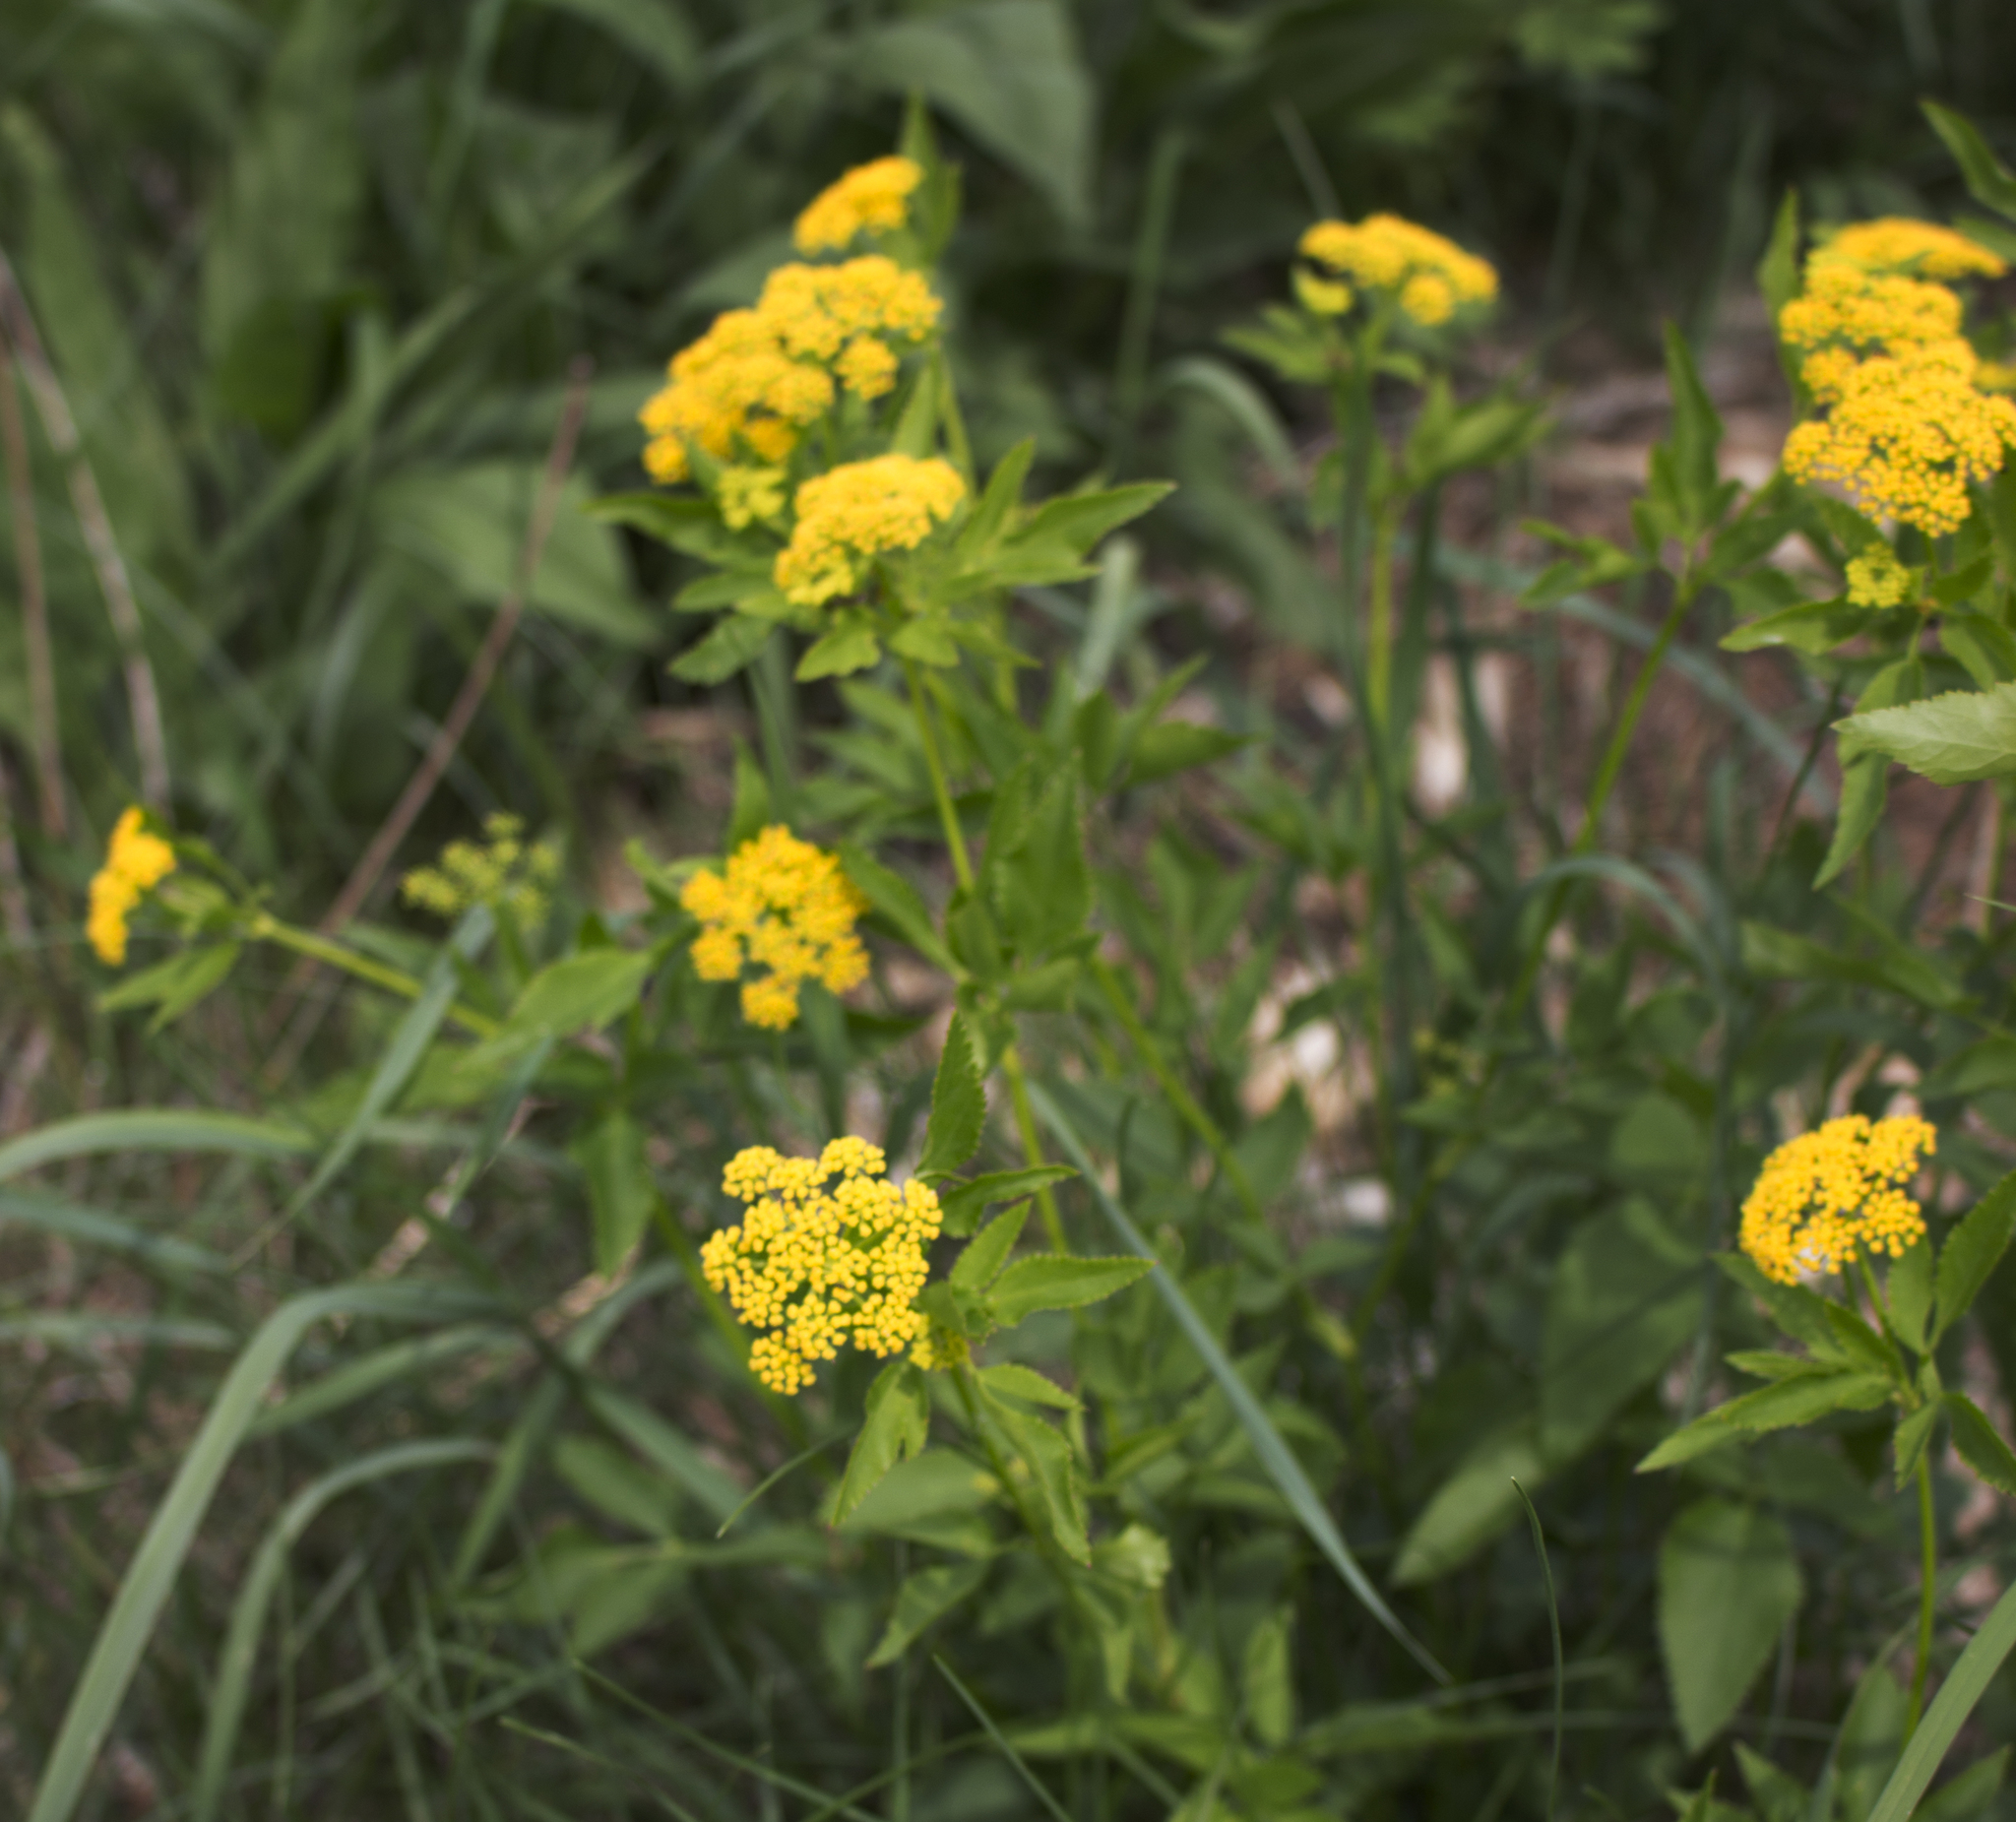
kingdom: Plantae
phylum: Tracheophyta
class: Magnoliopsida
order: Apiales
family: Apiaceae
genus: Zizia
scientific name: Zizia aurea
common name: Golden alexanders
